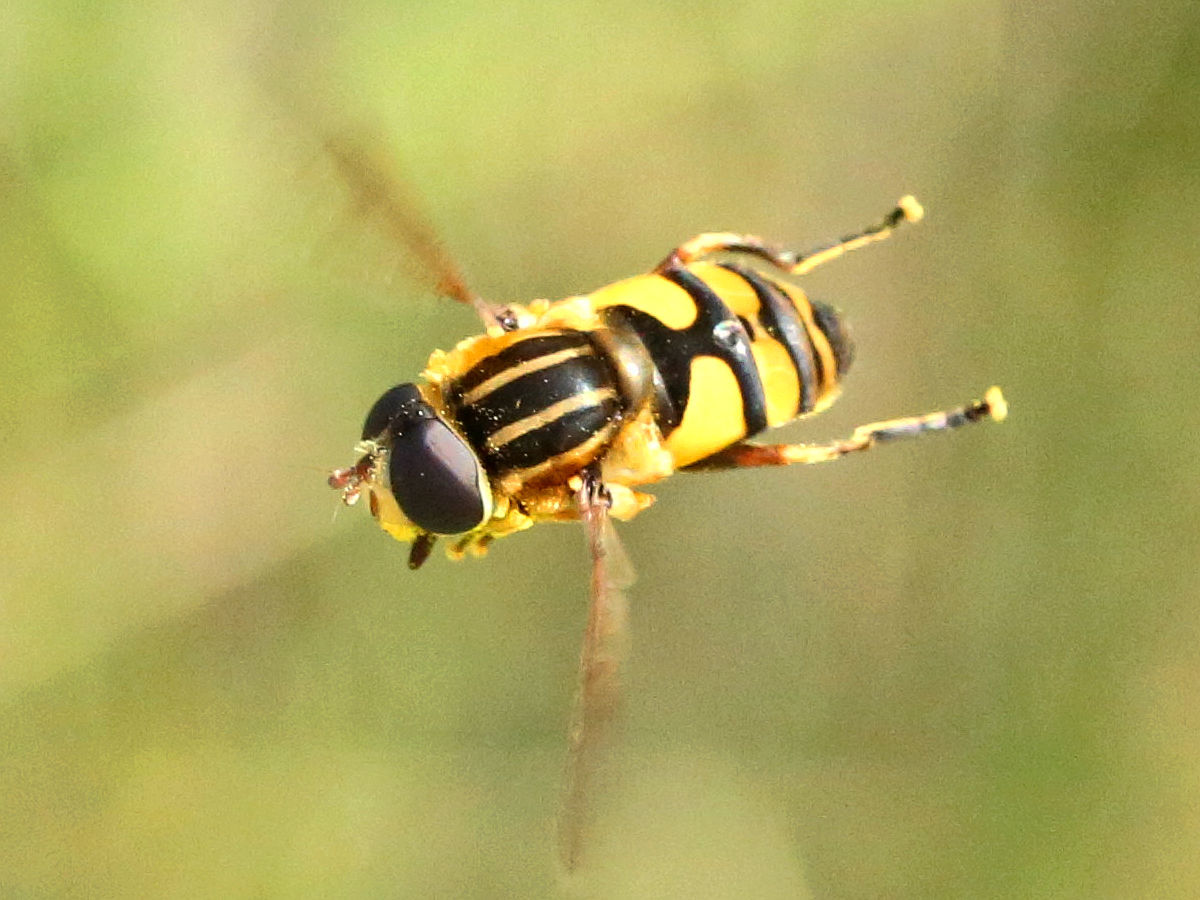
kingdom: Animalia
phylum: Arthropoda
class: Insecta
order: Diptera
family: Syrphidae
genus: Helophilus
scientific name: Helophilus fasciatus
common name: Narrow-headed marsh fly
